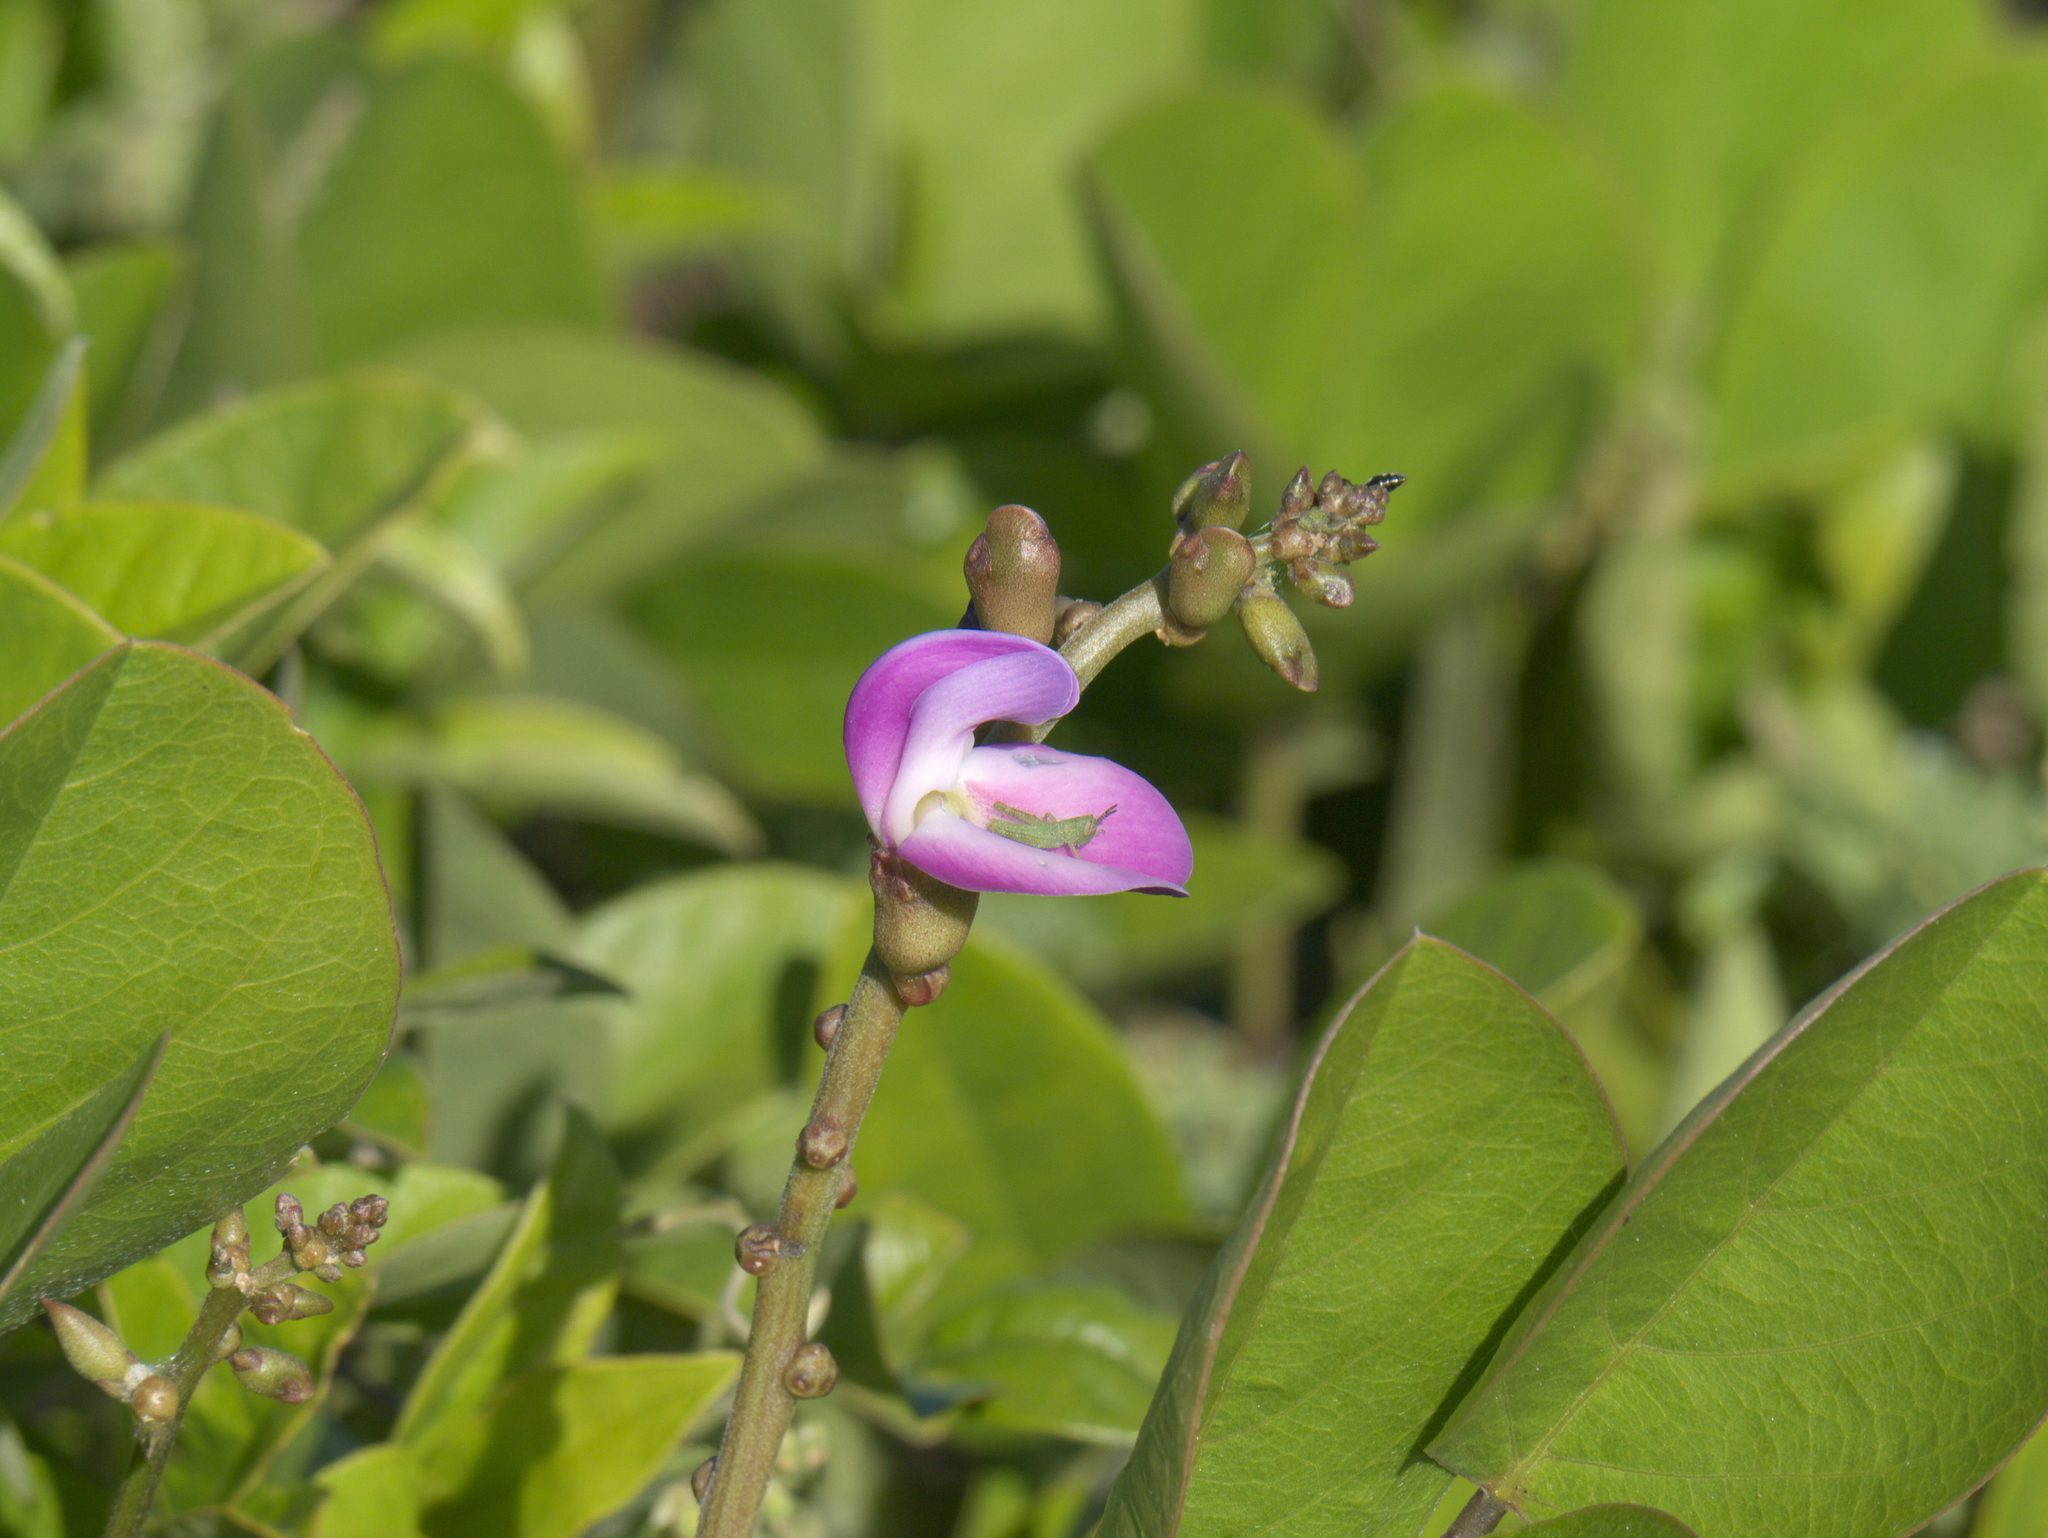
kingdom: Plantae
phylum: Tracheophyta
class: Magnoliopsida
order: Fabales
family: Fabaceae
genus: Canavalia
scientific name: Canavalia rosea
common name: Beach-bean
